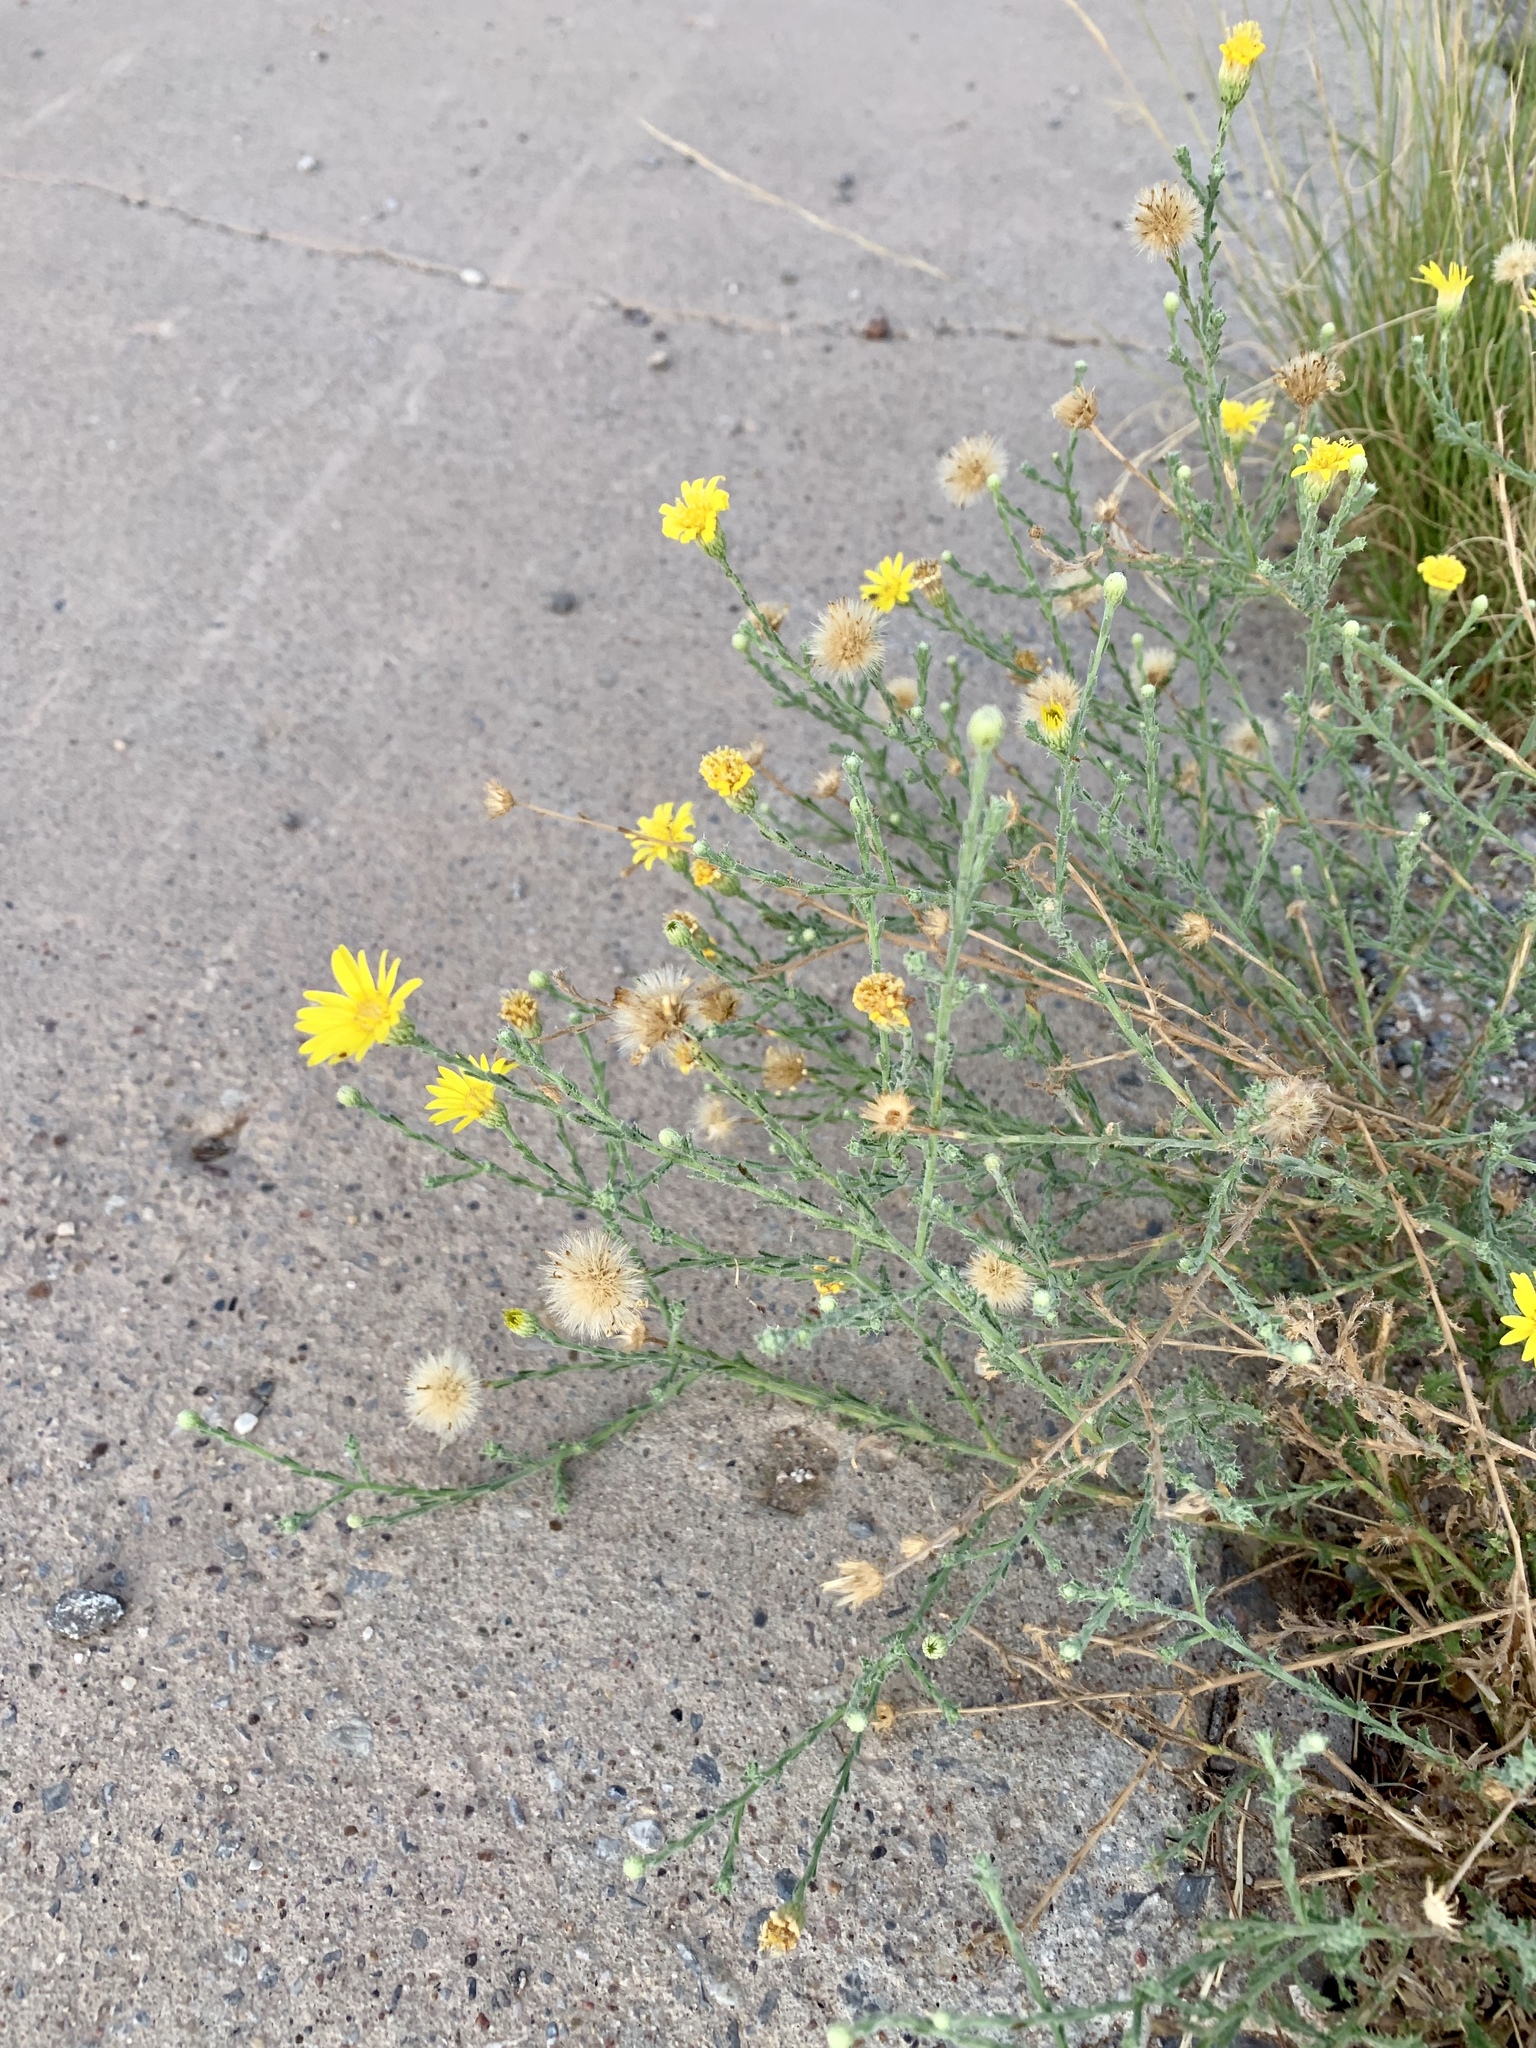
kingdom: Plantae
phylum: Tracheophyta
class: Magnoliopsida
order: Asterales
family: Asteraceae
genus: Xanthisma
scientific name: Xanthisma spinulosum
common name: Spiny goldenweed
